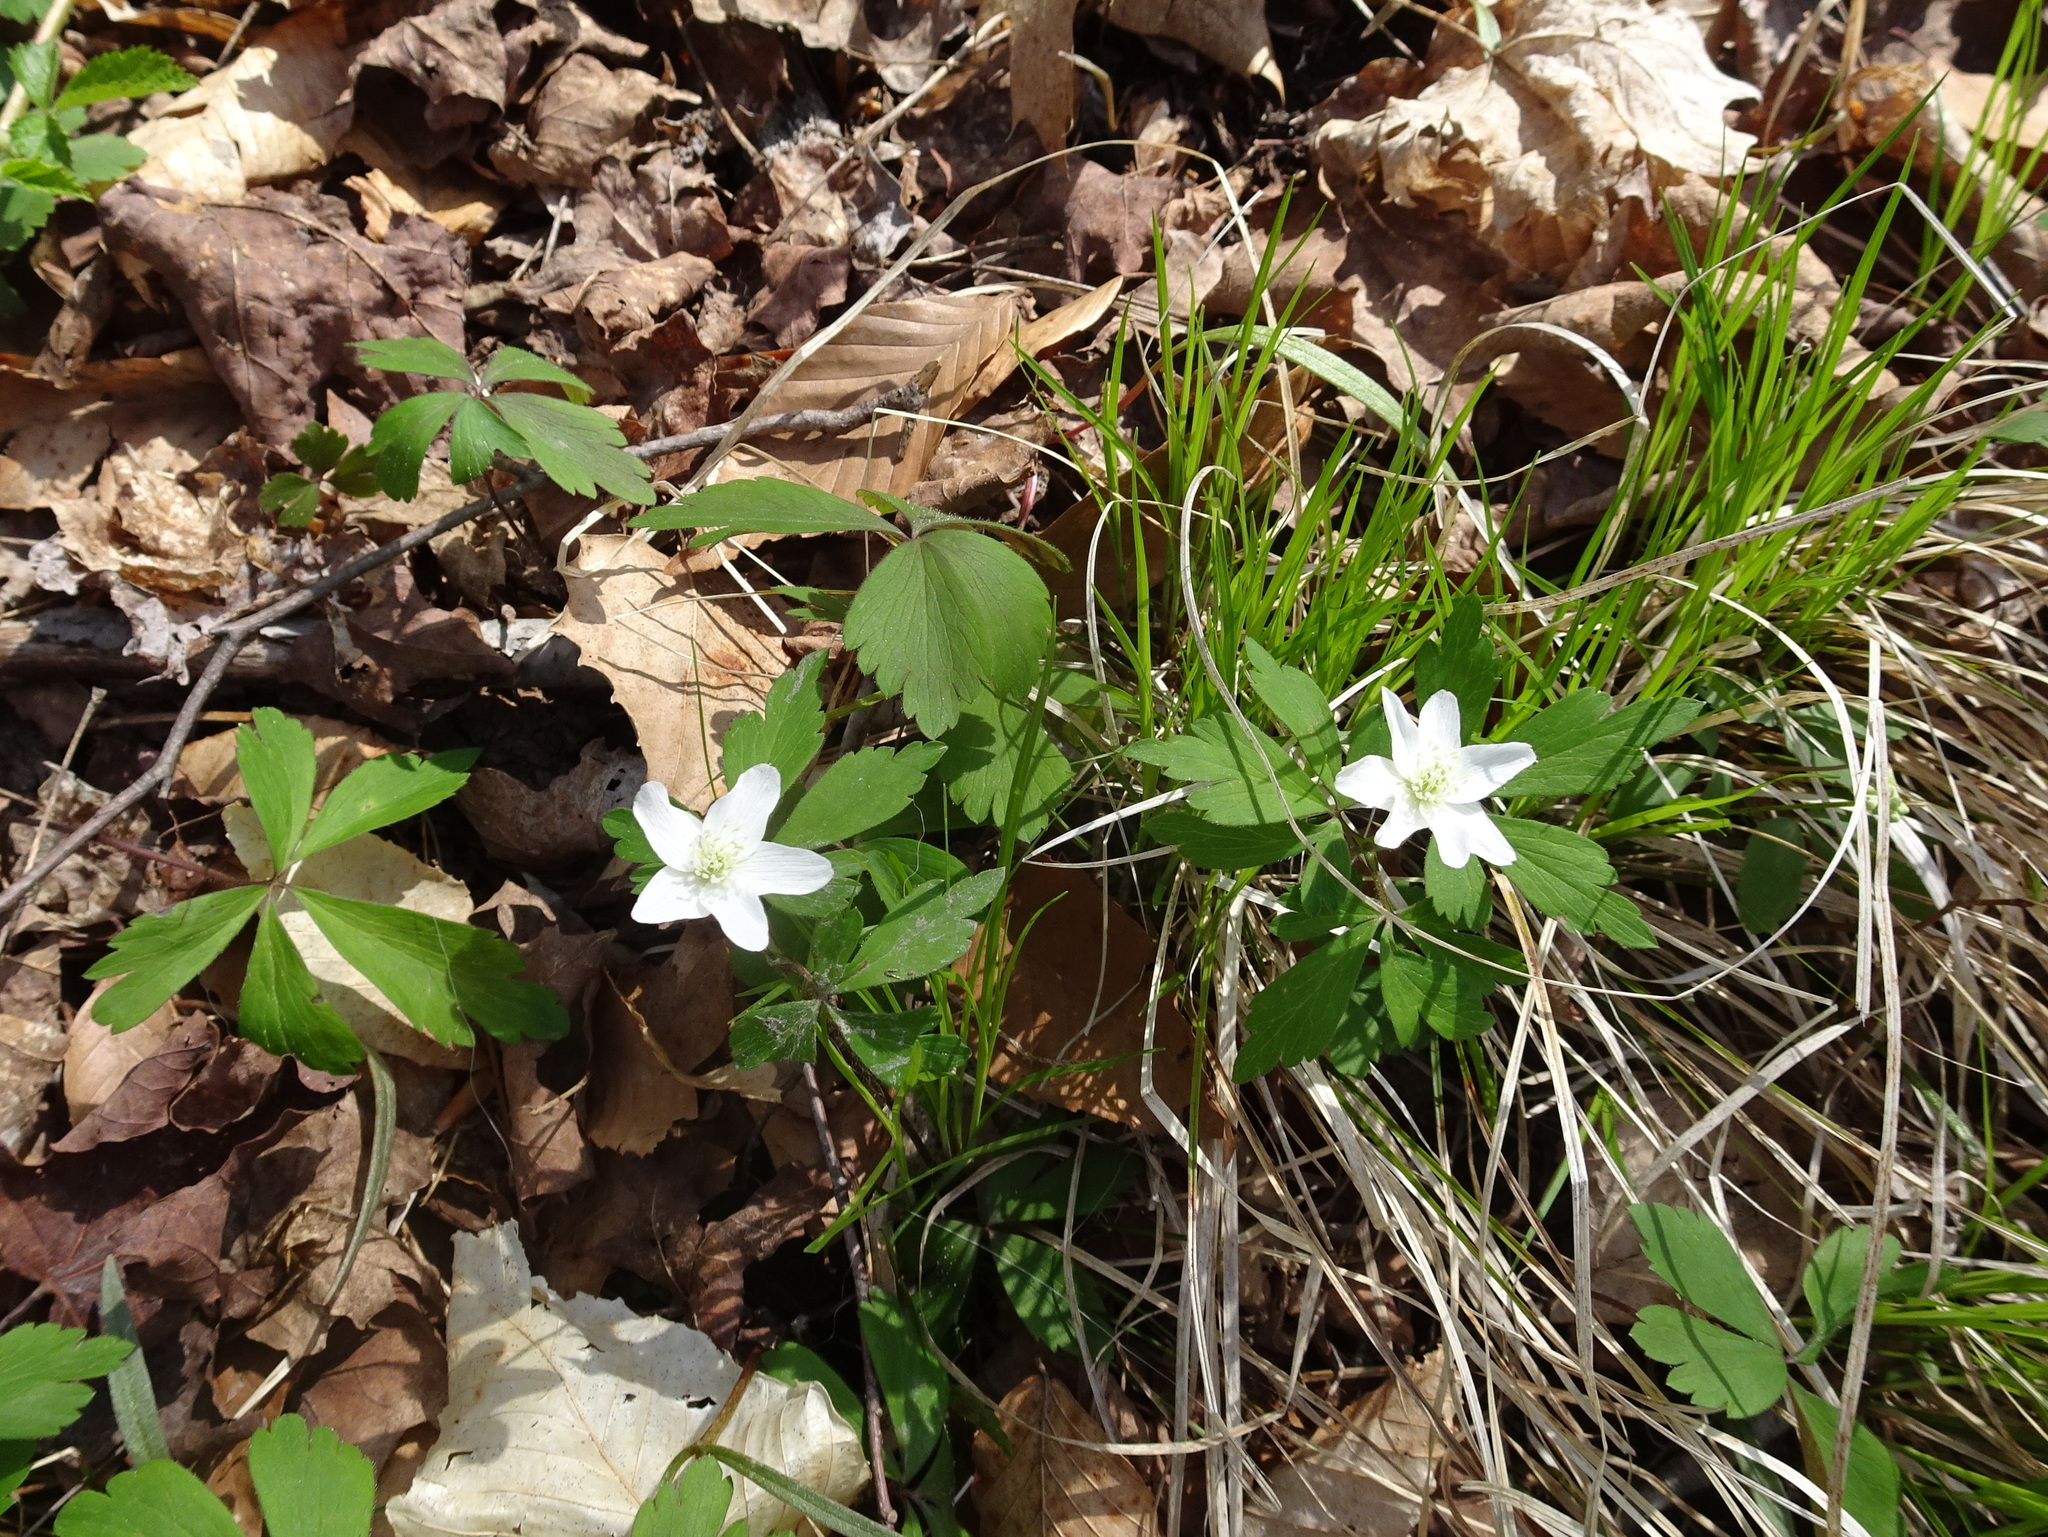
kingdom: Plantae
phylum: Tracheophyta
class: Magnoliopsida
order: Ranunculales
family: Ranunculaceae
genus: Anemone
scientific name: Anemone quinquefolia
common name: Wood anemone
